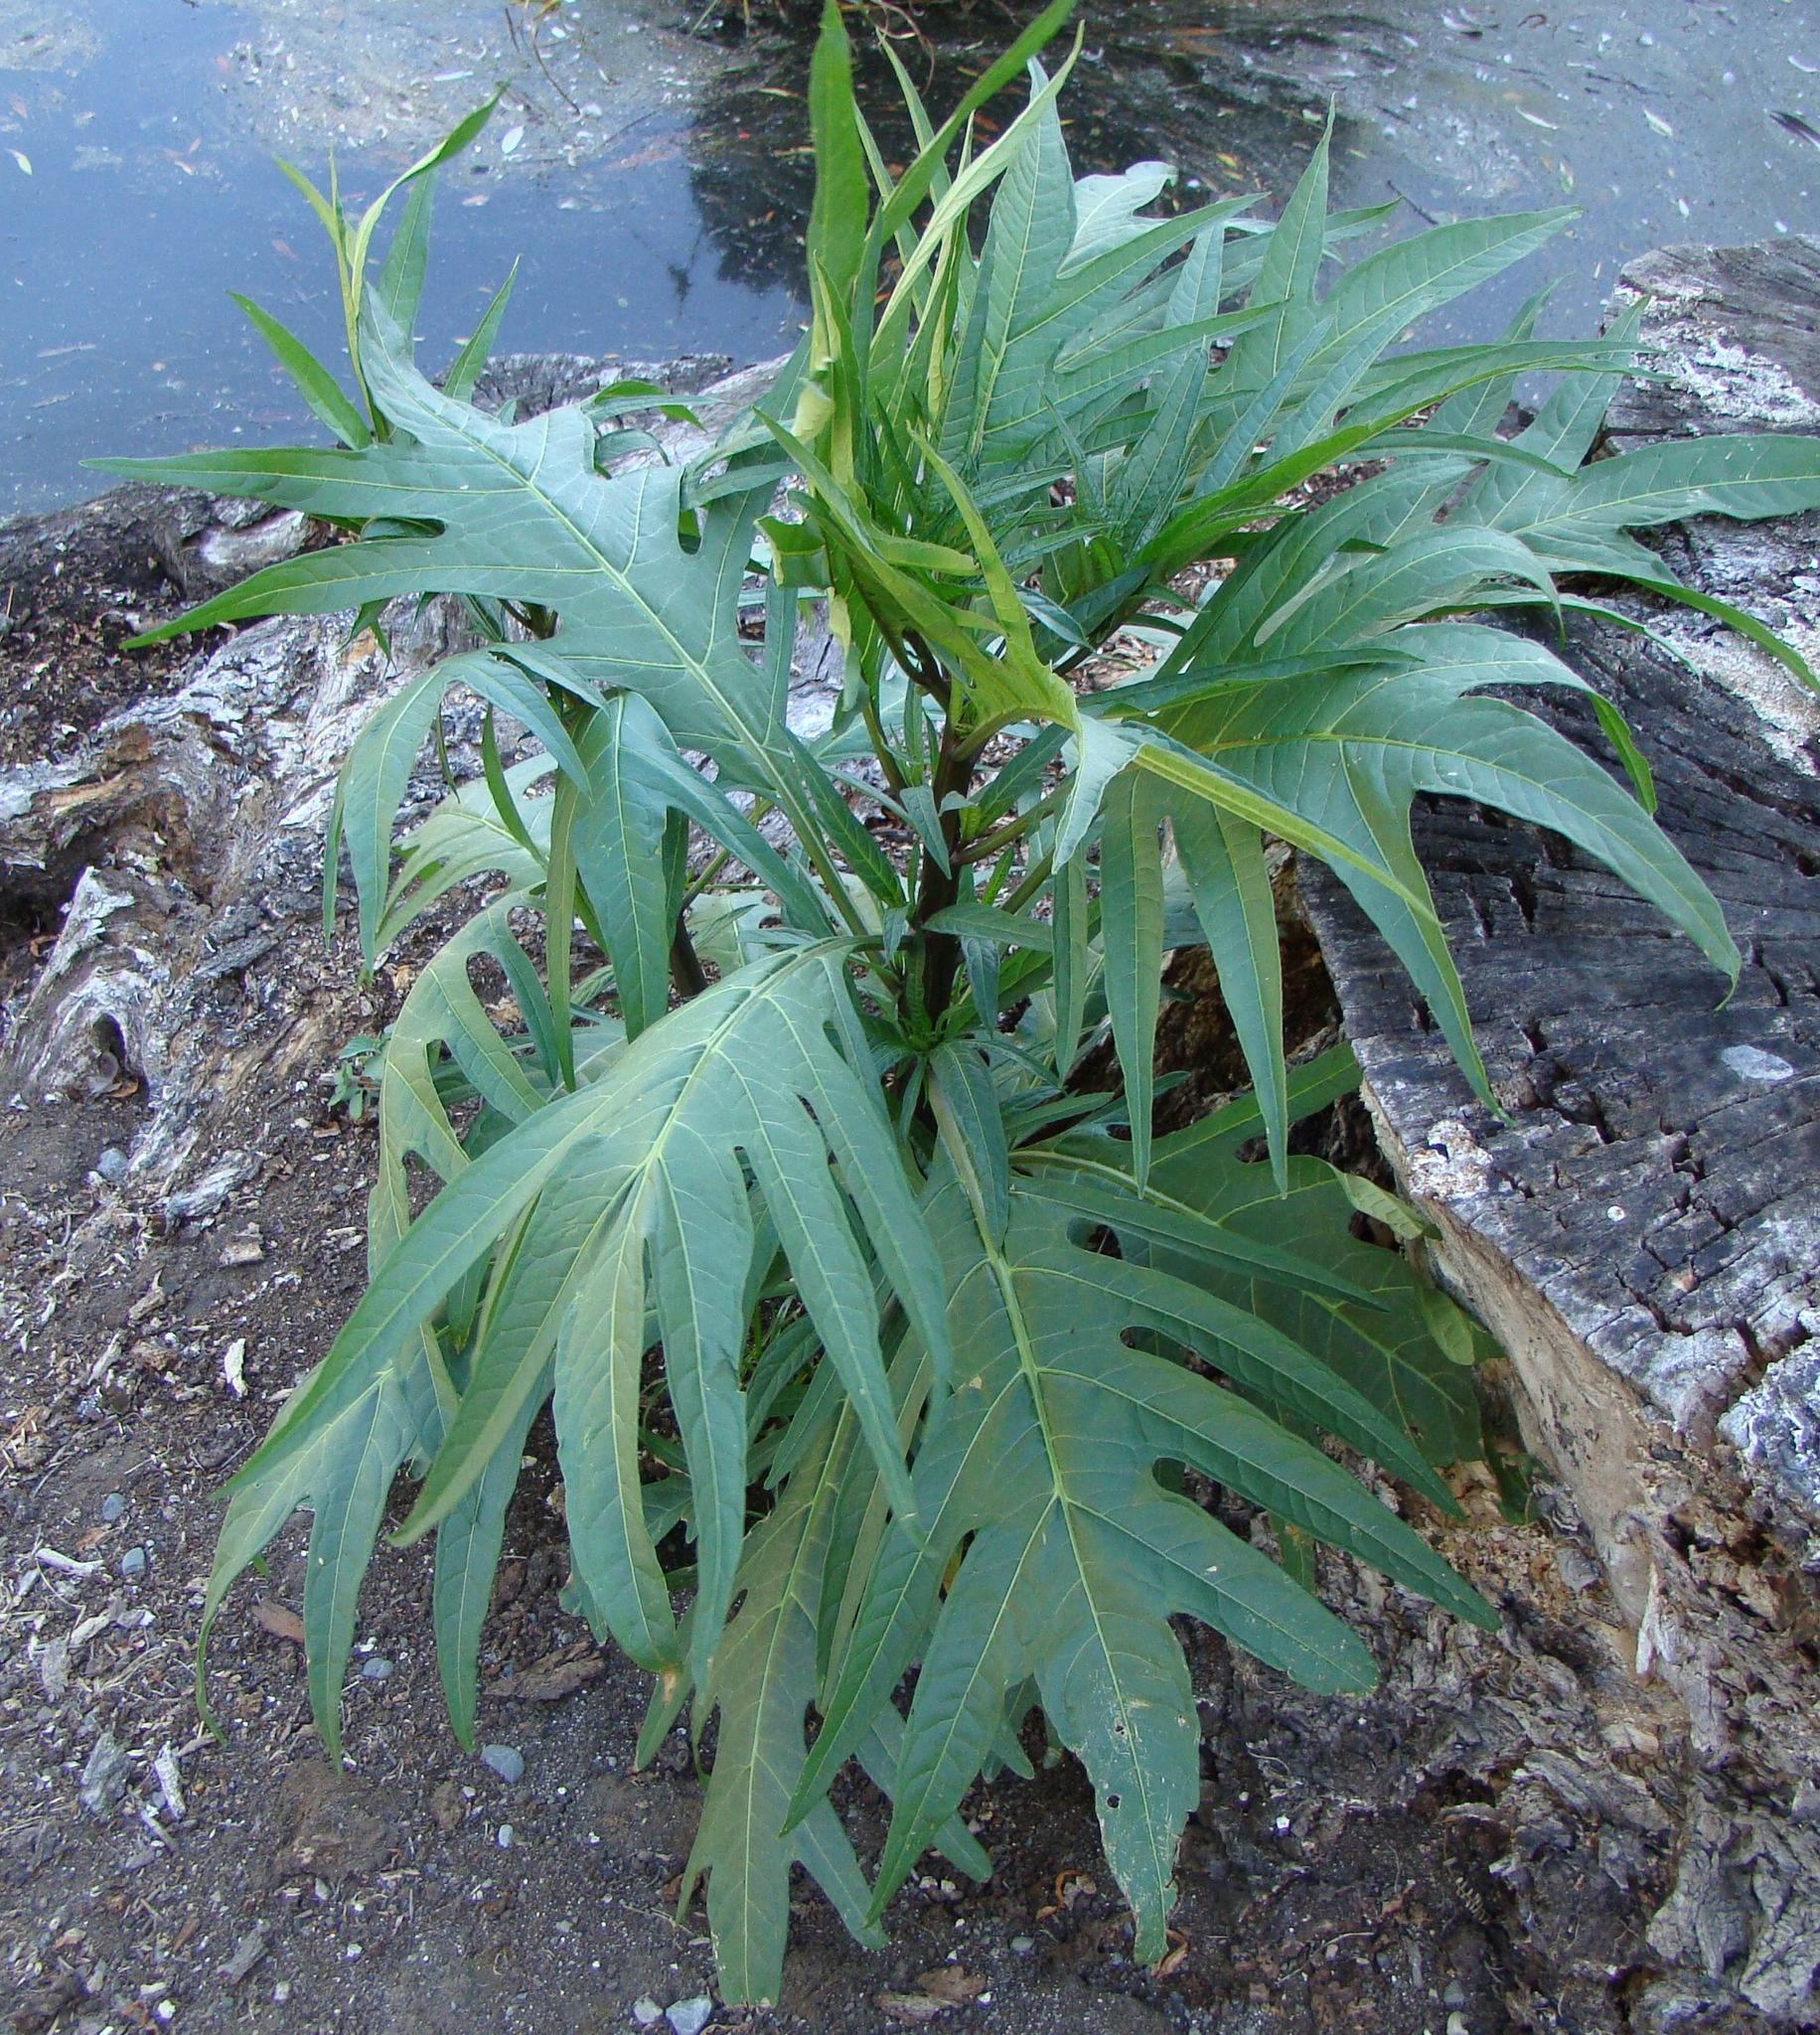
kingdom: Plantae
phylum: Tracheophyta
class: Magnoliopsida
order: Solanales
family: Solanaceae
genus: Solanum
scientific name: Solanum laciniatum
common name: Kangaroo-apple
